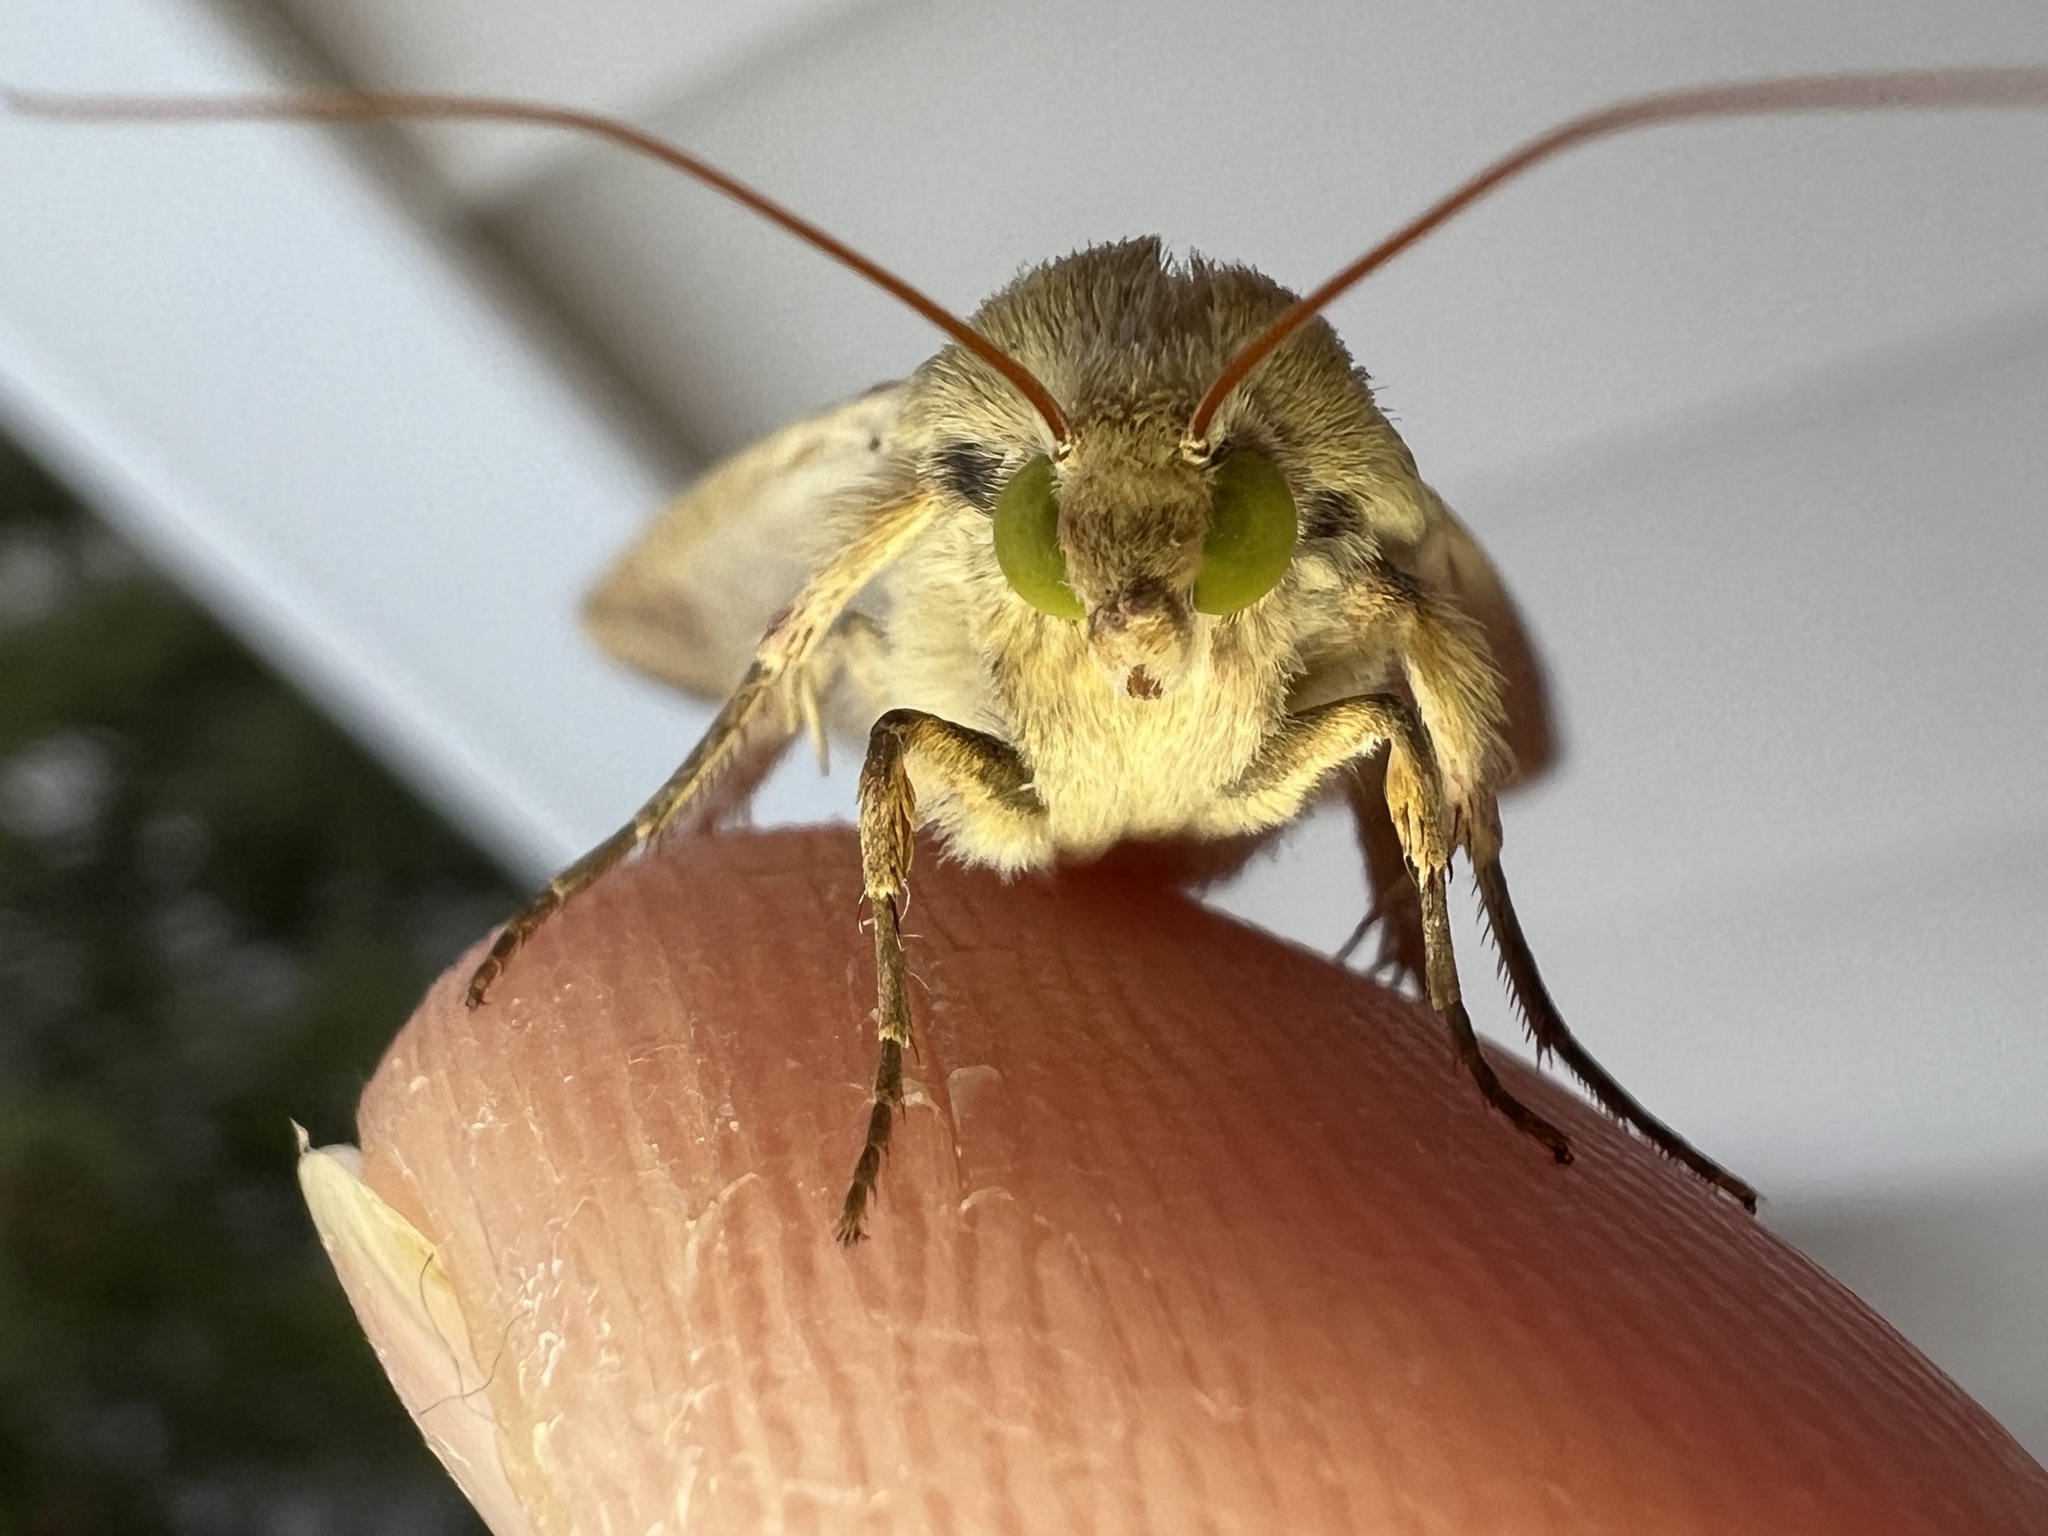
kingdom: Animalia
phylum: Arthropoda
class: Insecta
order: Lepidoptera
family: Noctuidae
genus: Helicoverpa
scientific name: Helicoverpa zea
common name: Bollworm
